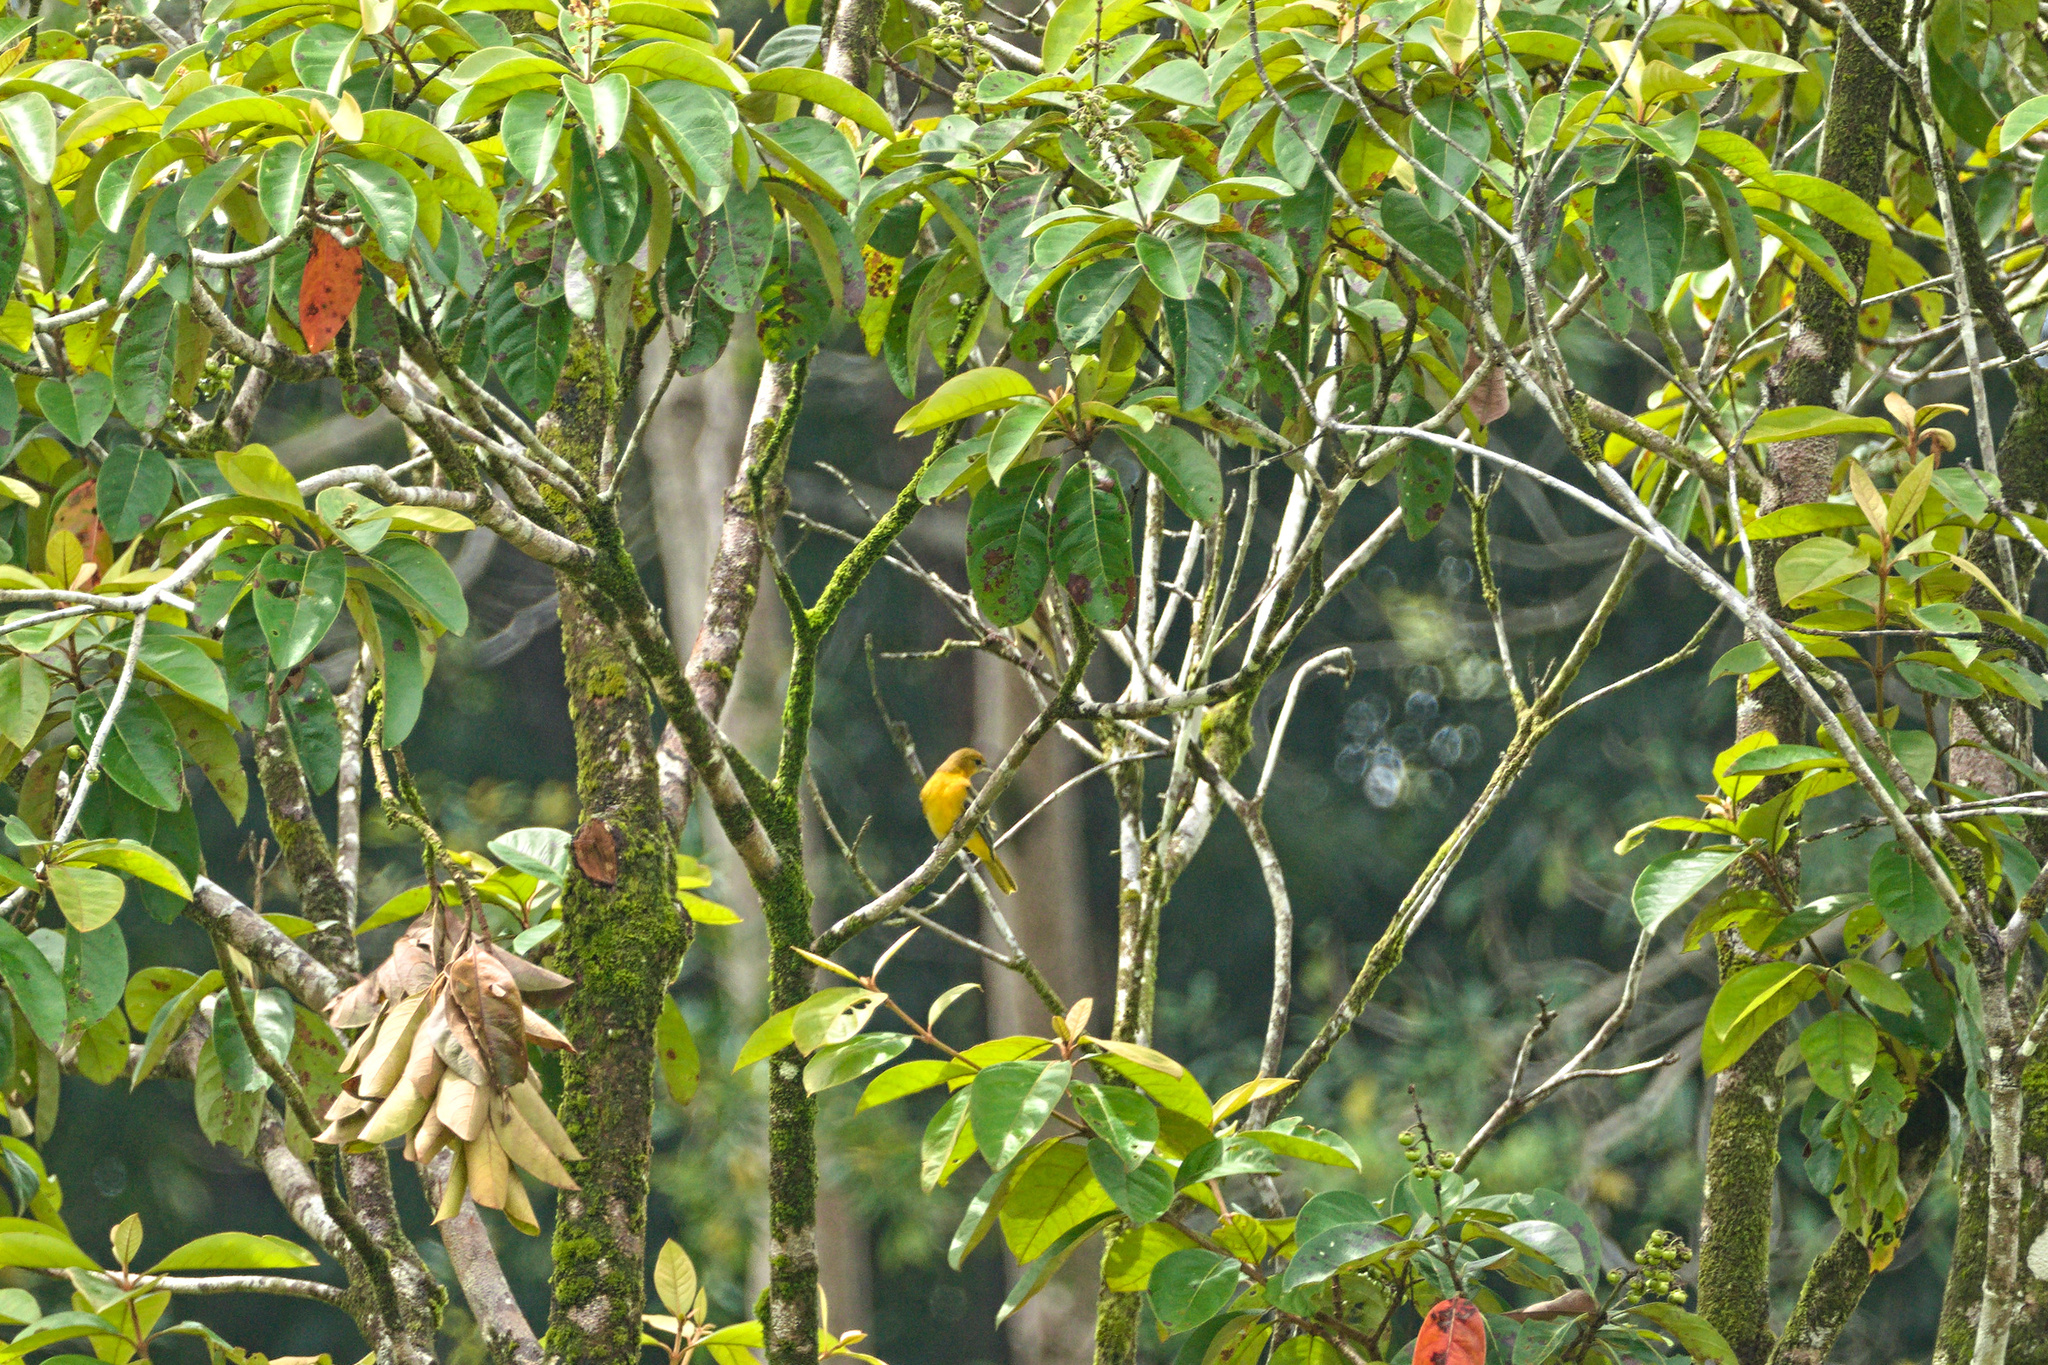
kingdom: Animalia
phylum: Chordata
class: Aves
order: Passeriformes
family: Icteridae
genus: Icterus
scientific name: Icterus galbula
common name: Baltimore oriole
